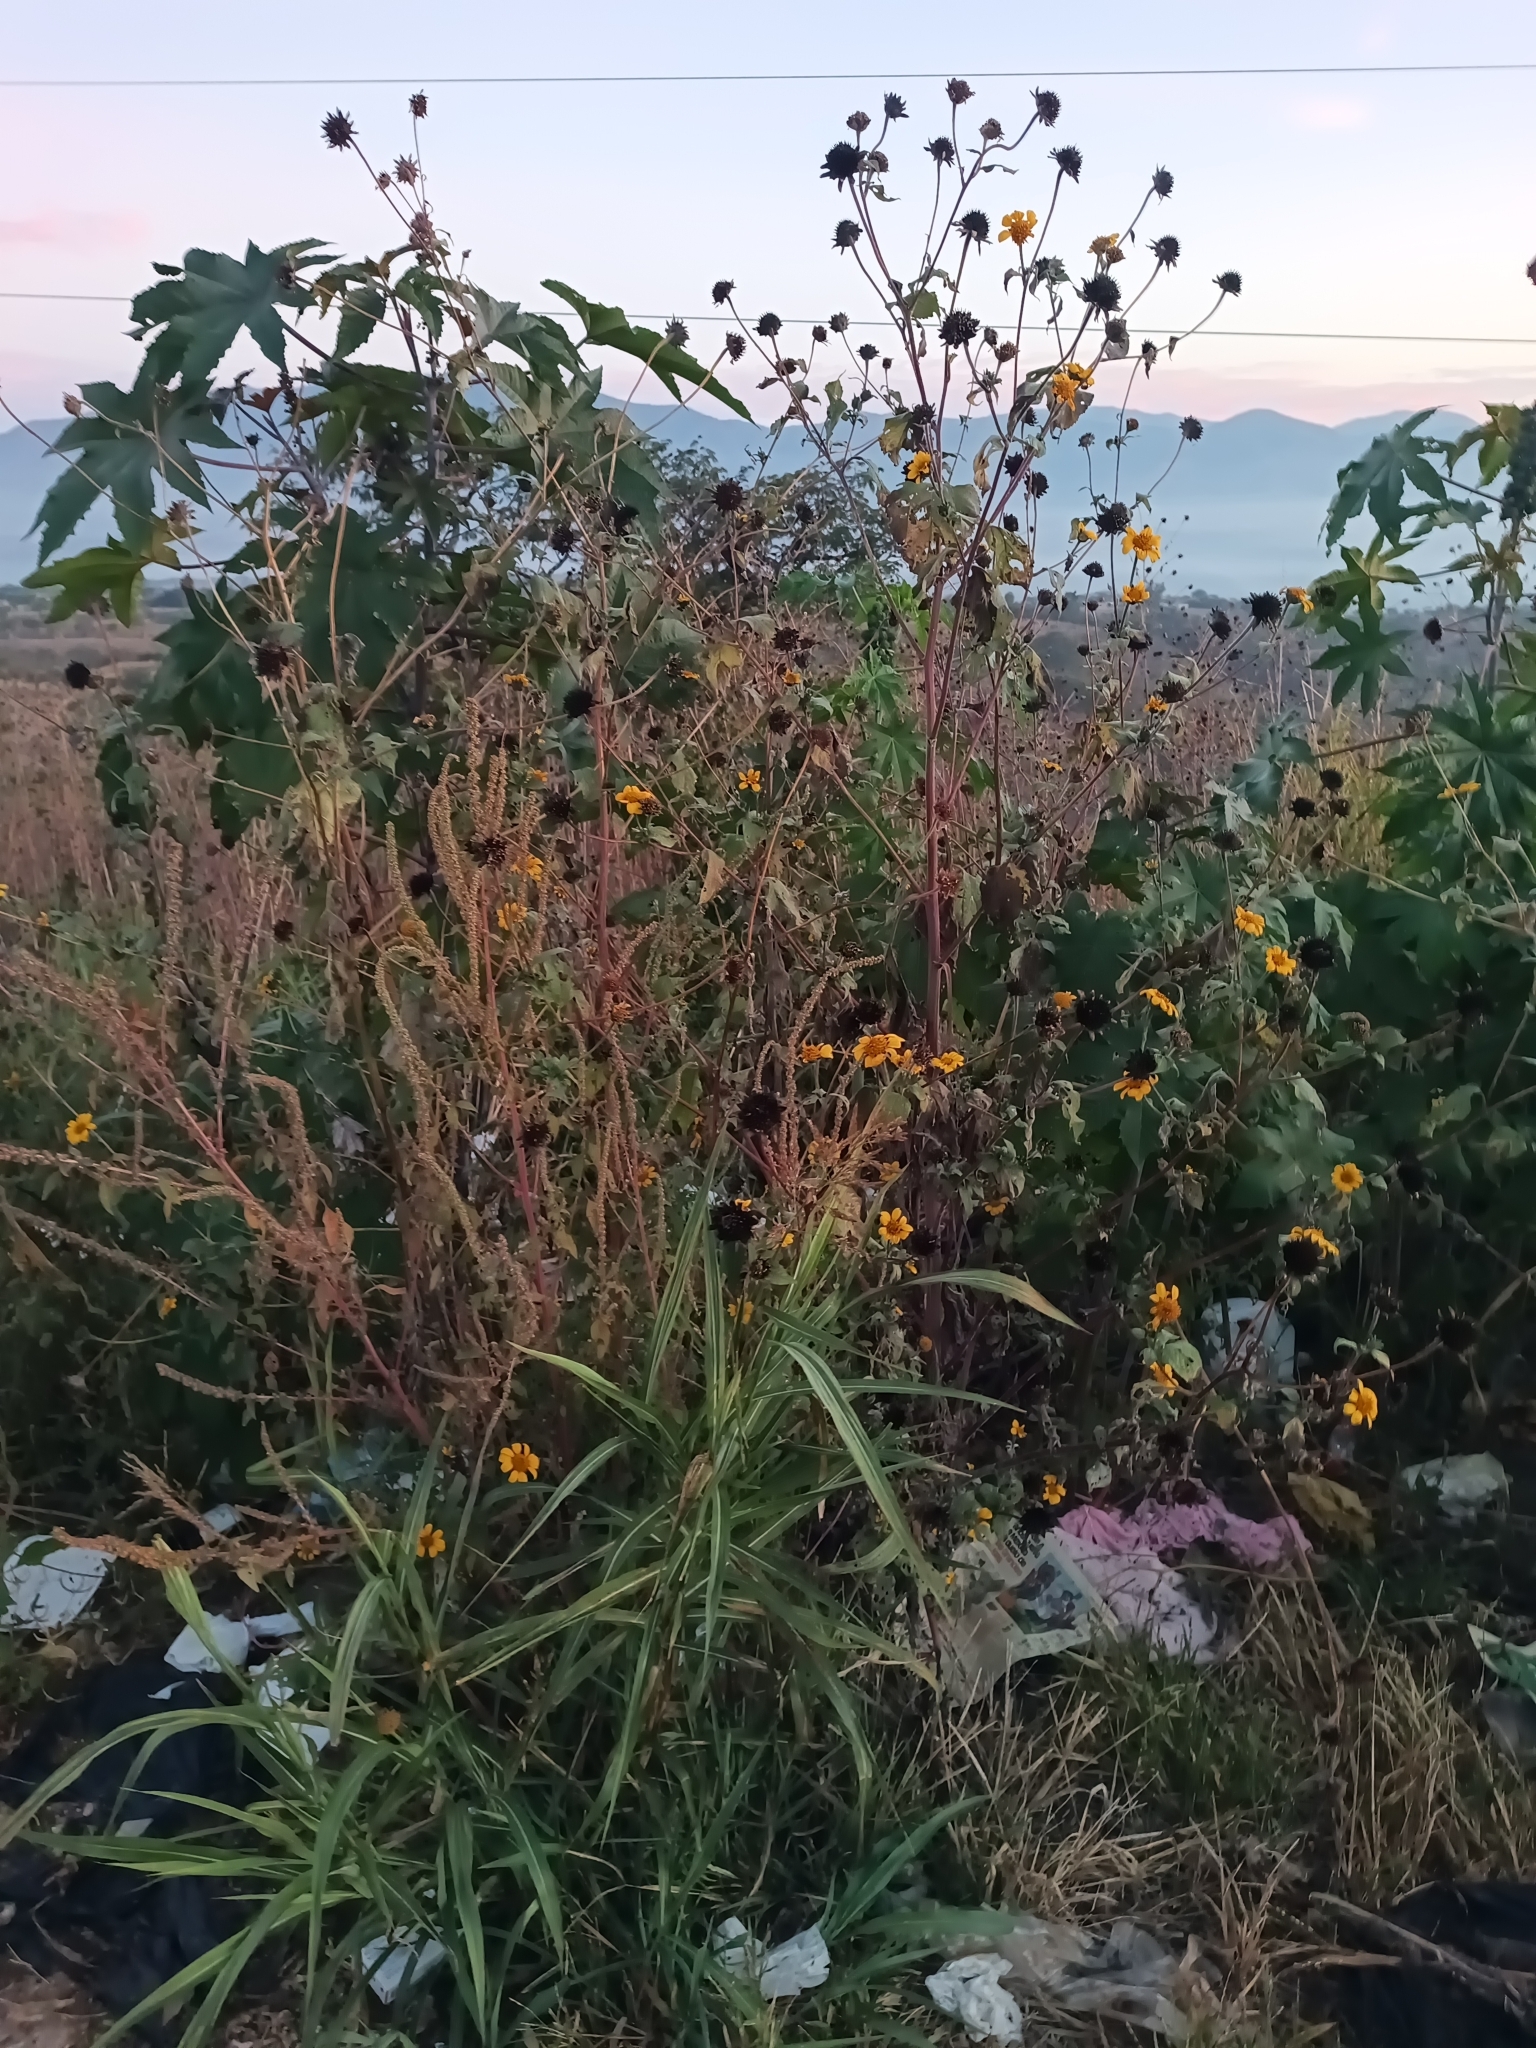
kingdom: Plantae
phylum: Tracheophyta
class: Magnoliopsida
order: Asterales
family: Asteraceae
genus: Tithonia
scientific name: Tithonia tubaeformis
